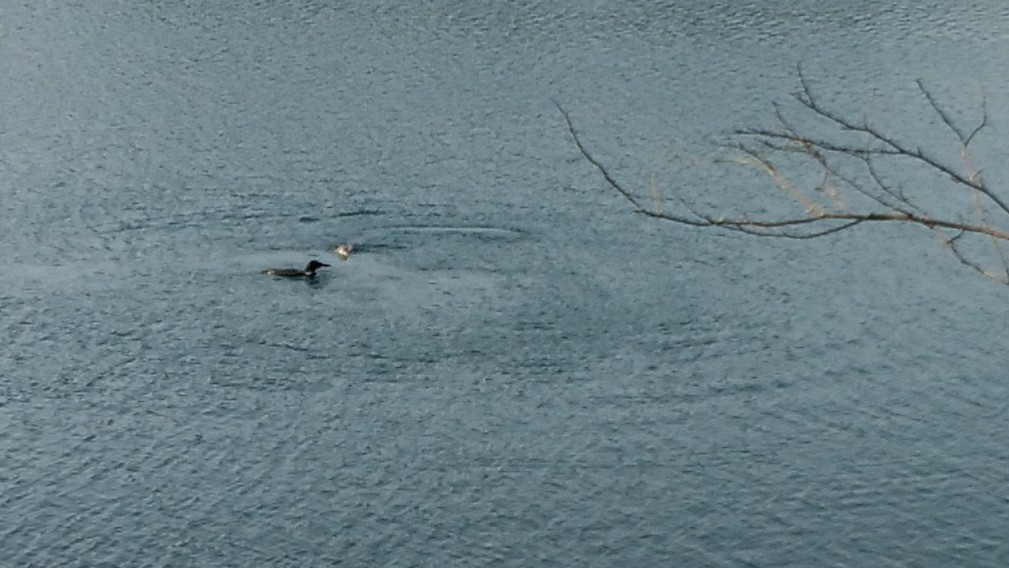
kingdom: Animalia
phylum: Chordata
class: Aves
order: Gaviiformes
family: Gaviidae
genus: Gavia
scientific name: Gavia immer
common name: Common loon
